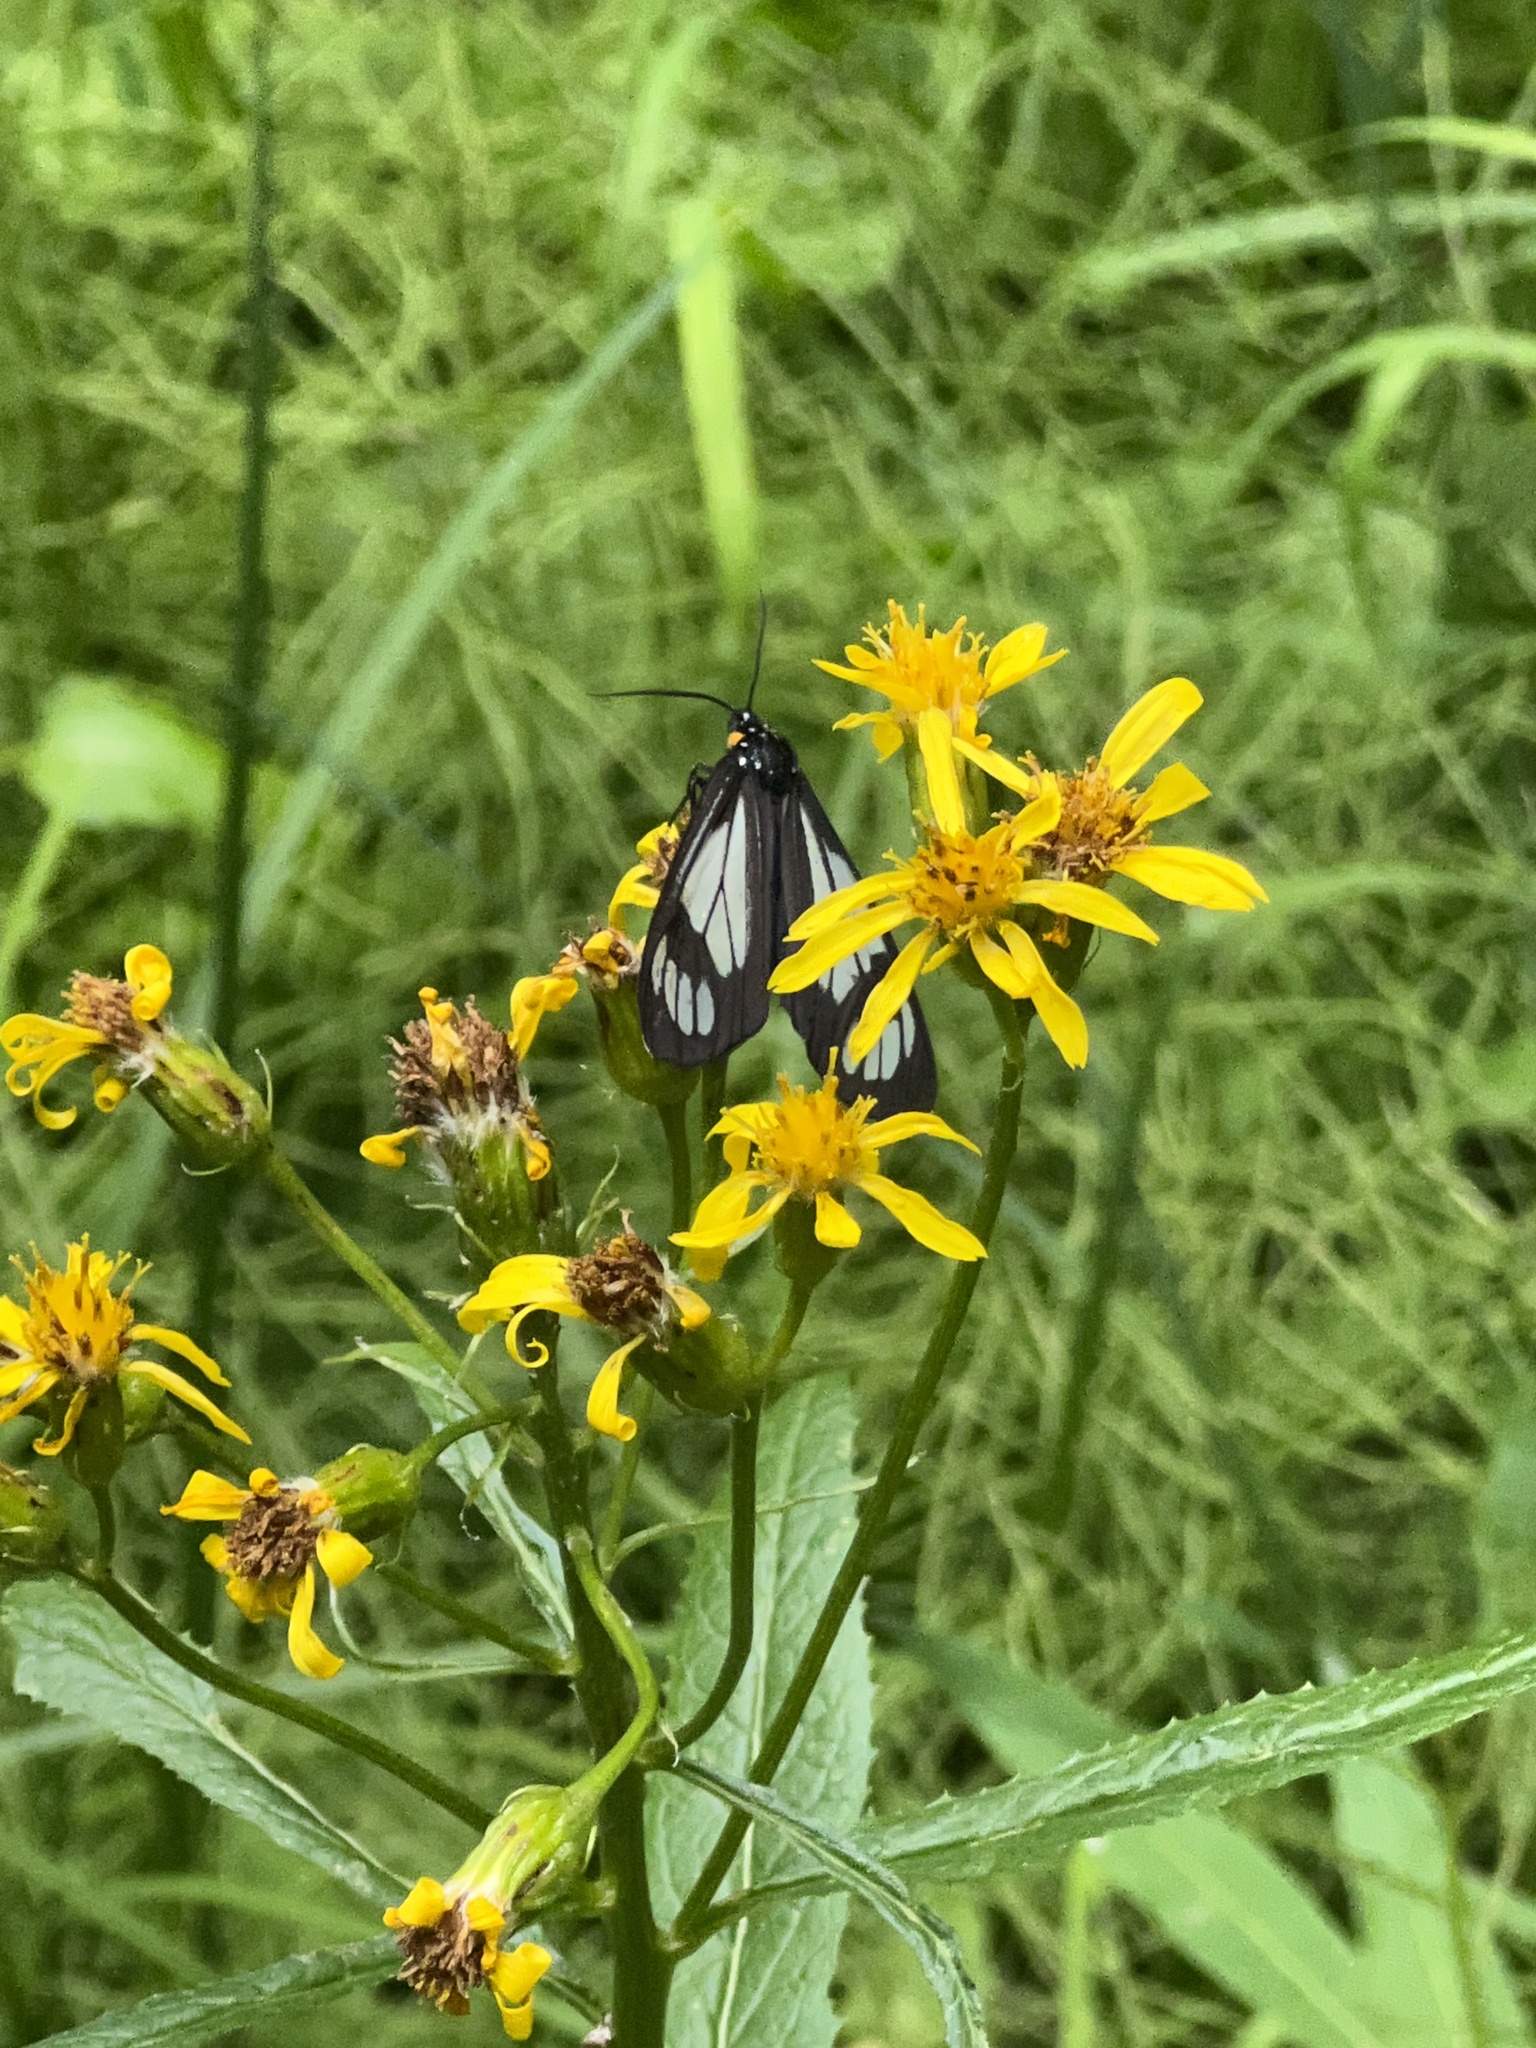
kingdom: Animalia
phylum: Arthropoda
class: Insecta
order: Lepidoptera
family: Erebidae
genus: Gnophaela
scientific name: Gnophaela vermiculata
